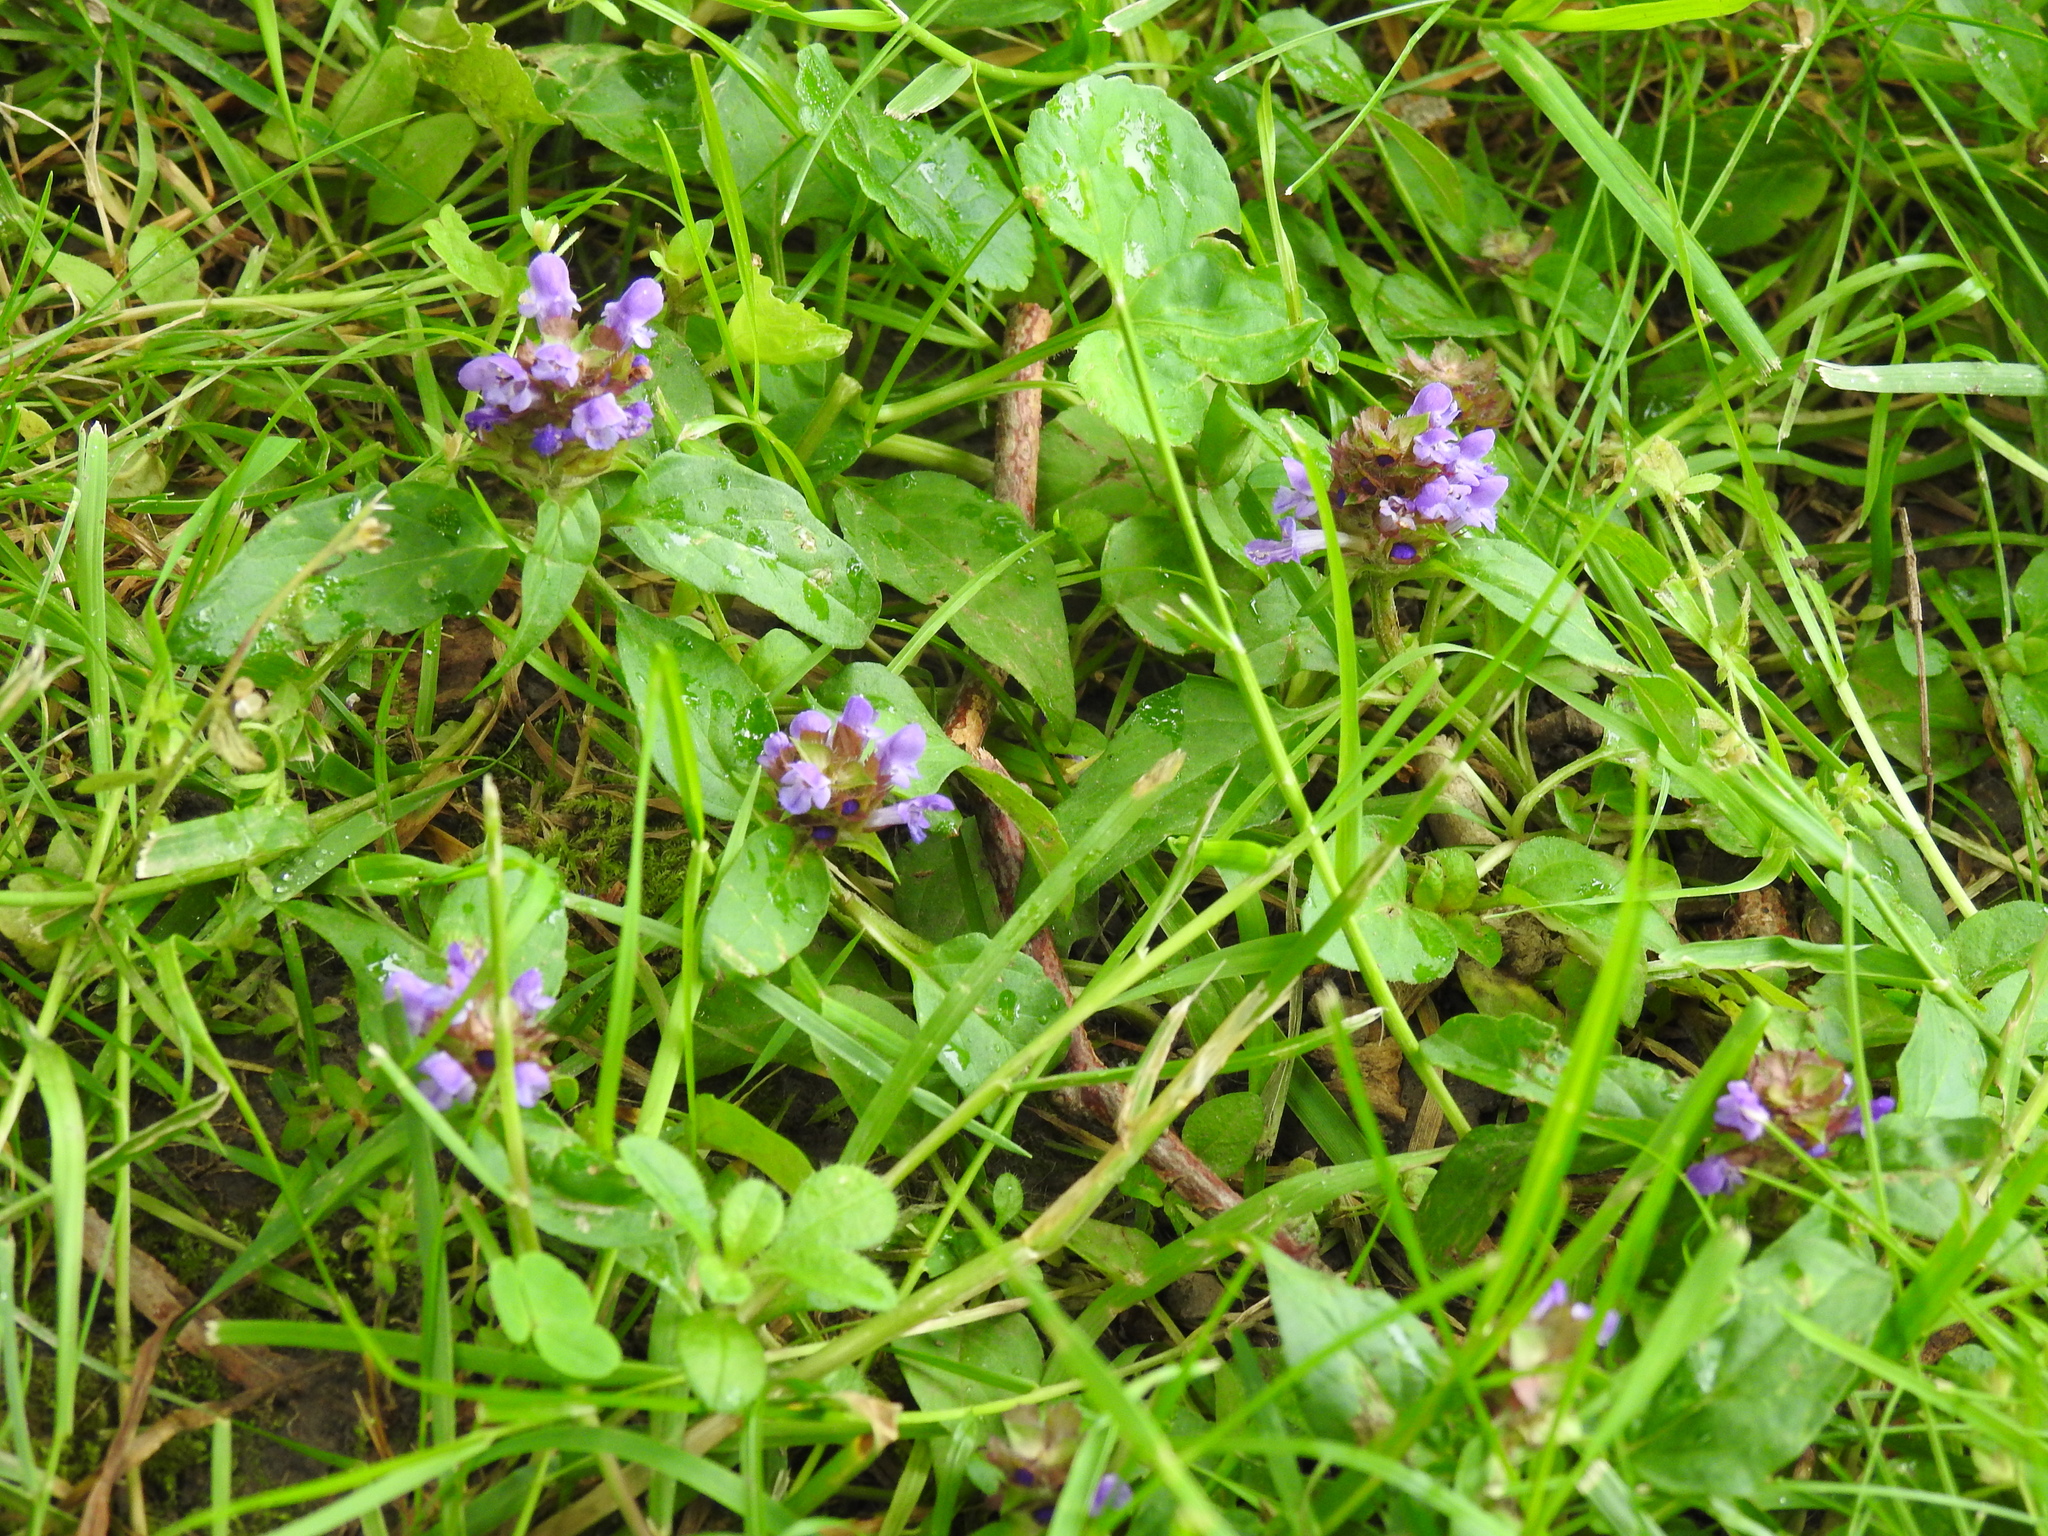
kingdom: Plantae
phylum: Tracheophyta
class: Magnoliopsida
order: Lamiales
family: Lamiaceae
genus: Prunella
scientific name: Prunella vulgaris
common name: Heal-all
